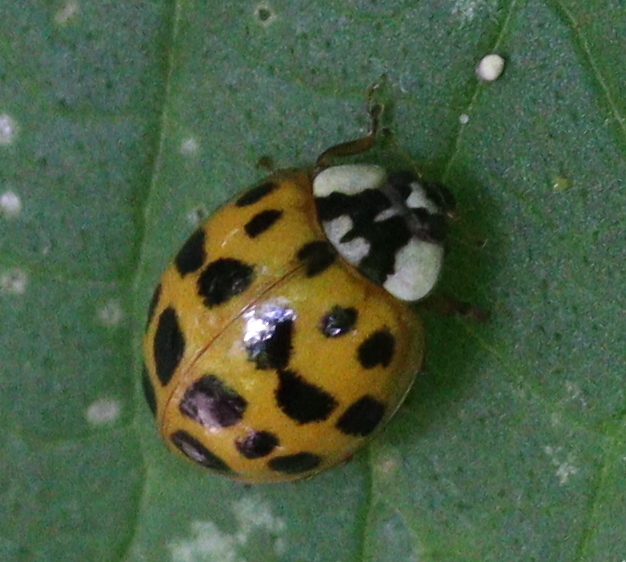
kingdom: Animalia
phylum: Arthropoda
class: Insecta
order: Coleoptera
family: Coccinellidae
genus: Harmonia
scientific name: Harmonia axyridis
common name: Harlequin ladybird
